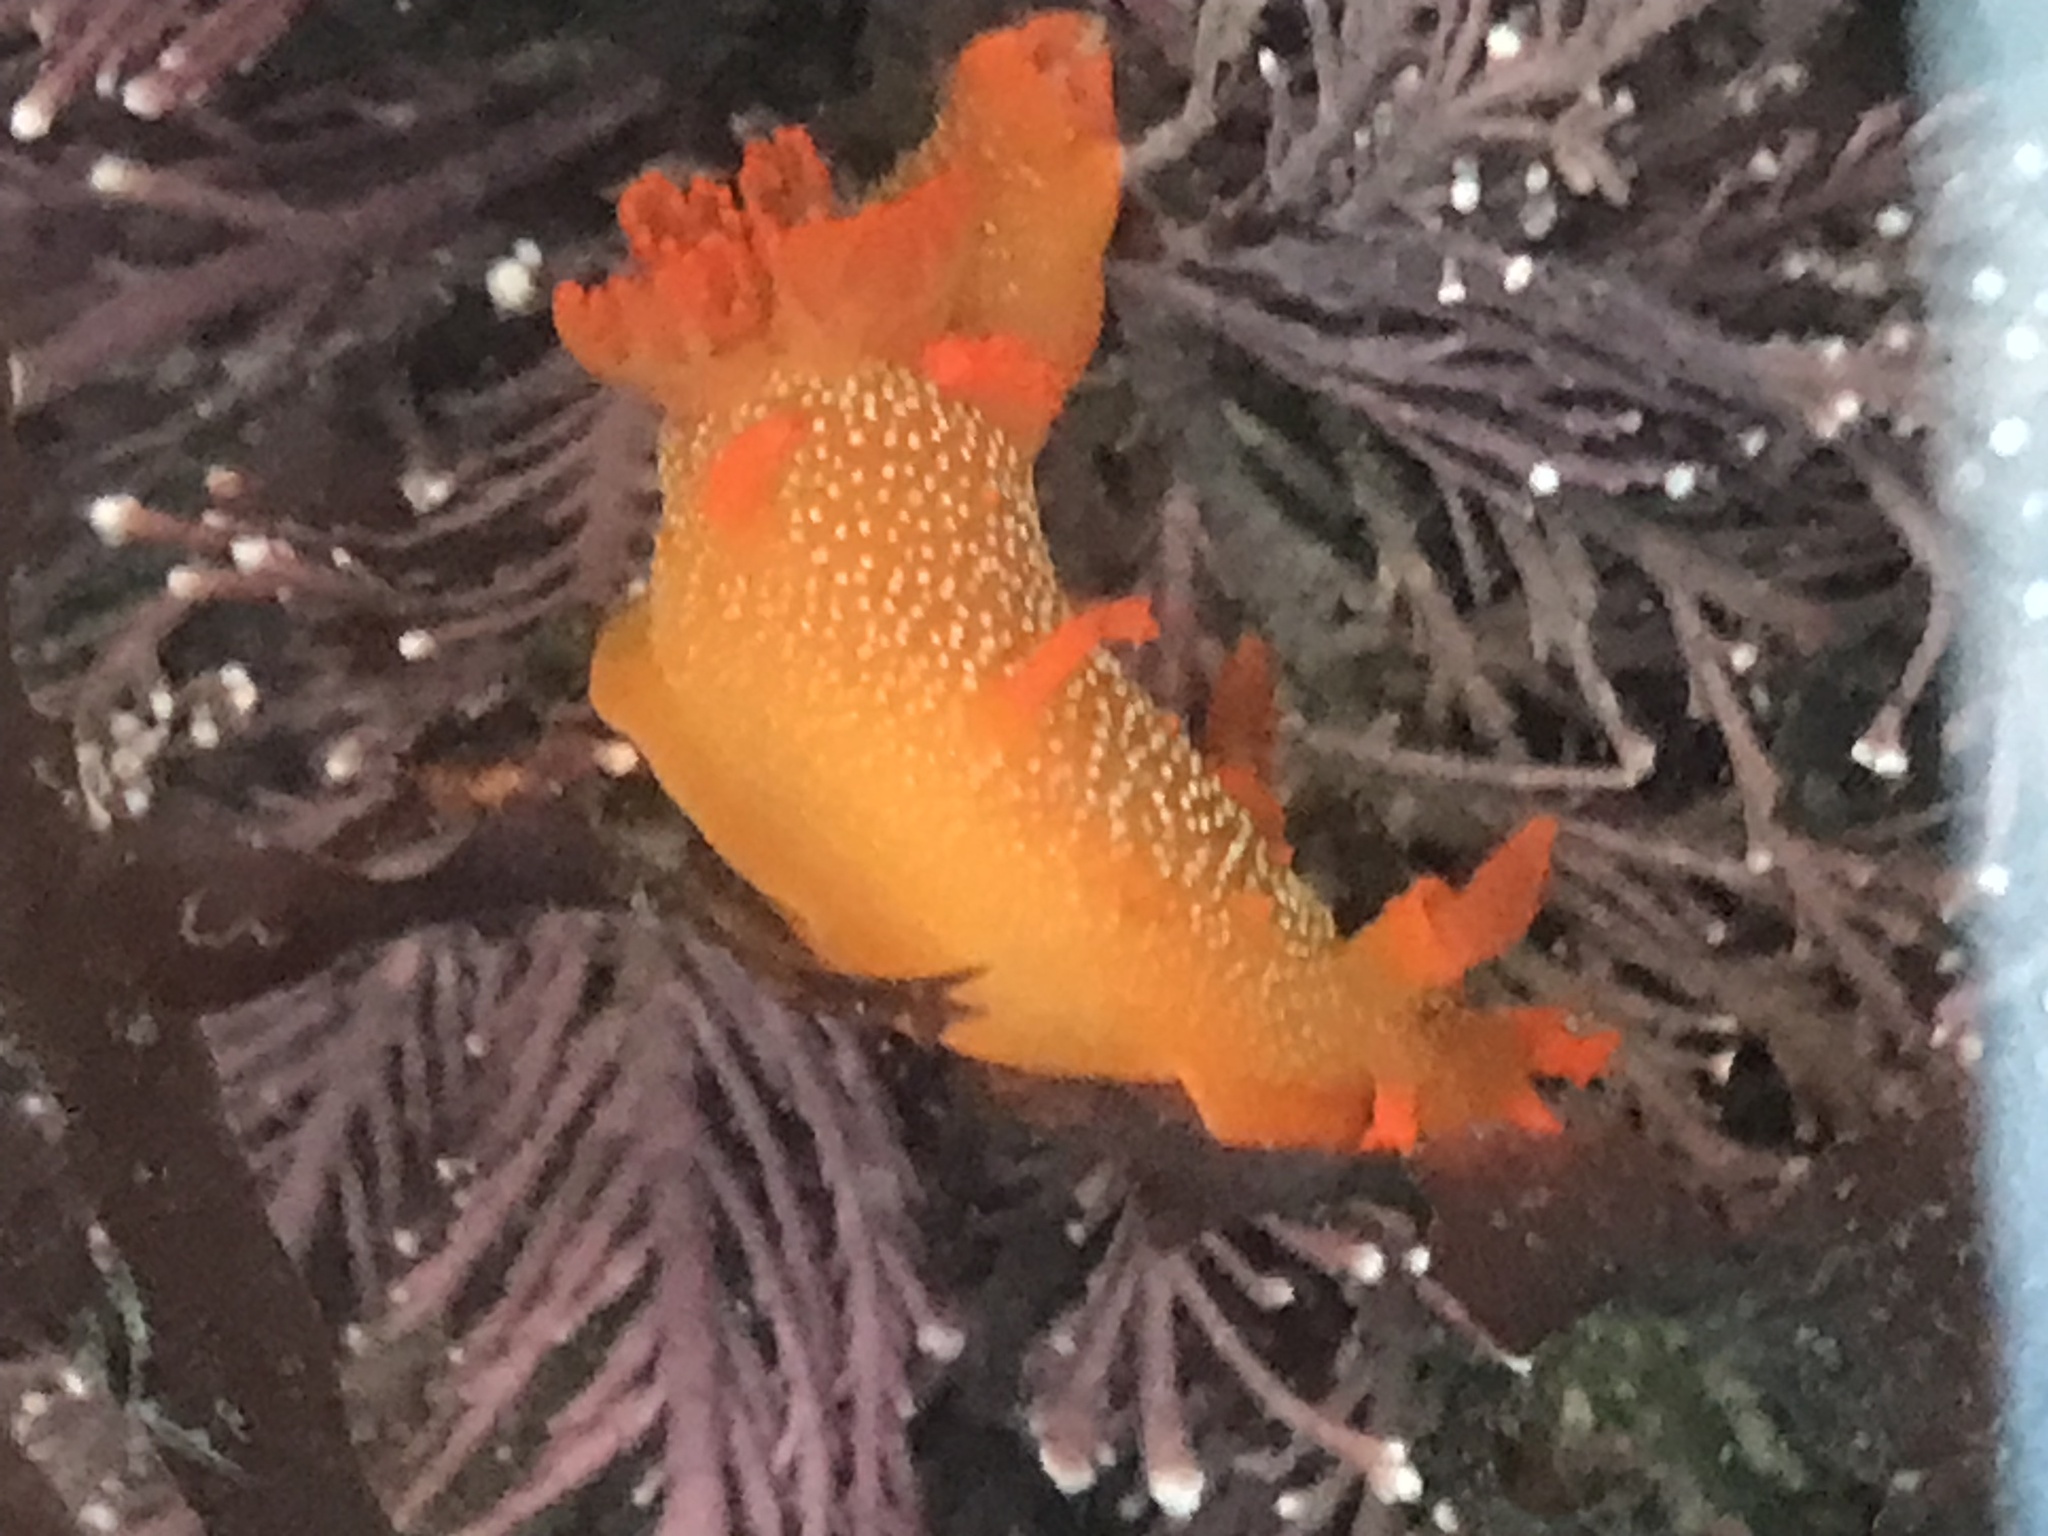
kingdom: Animalia
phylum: Mollusca
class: Gastropoda
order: Nudibranchia
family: Polyceridae
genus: Triopha
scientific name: Triopha maculata
